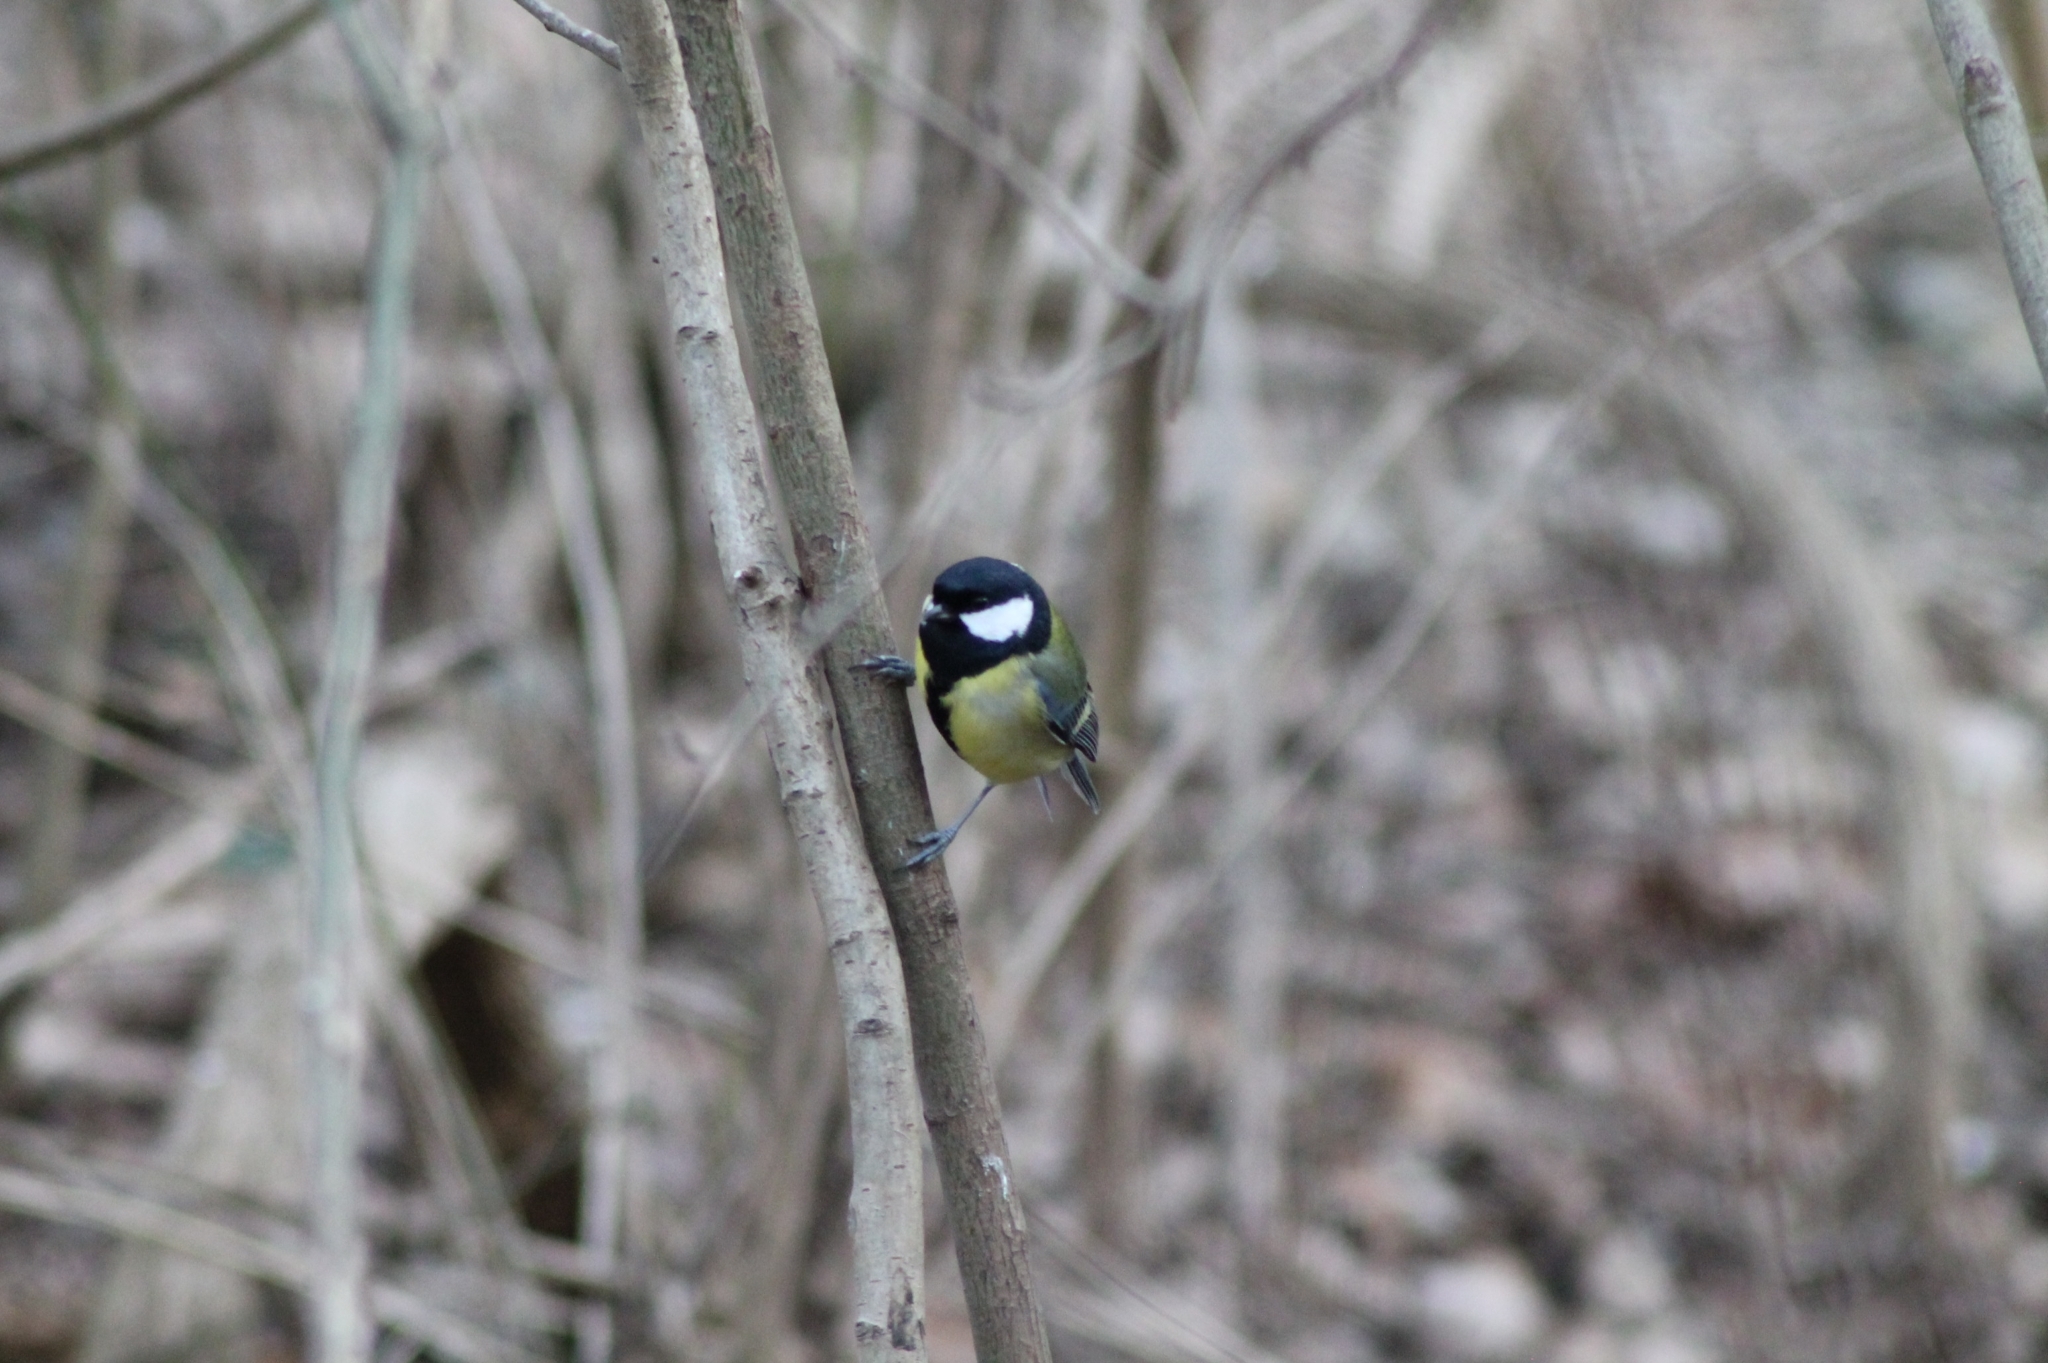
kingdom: Animalia
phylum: Chordata
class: Aves
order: Passeriformes
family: Paridae
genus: Parus
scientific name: Parus major
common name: Great tit
